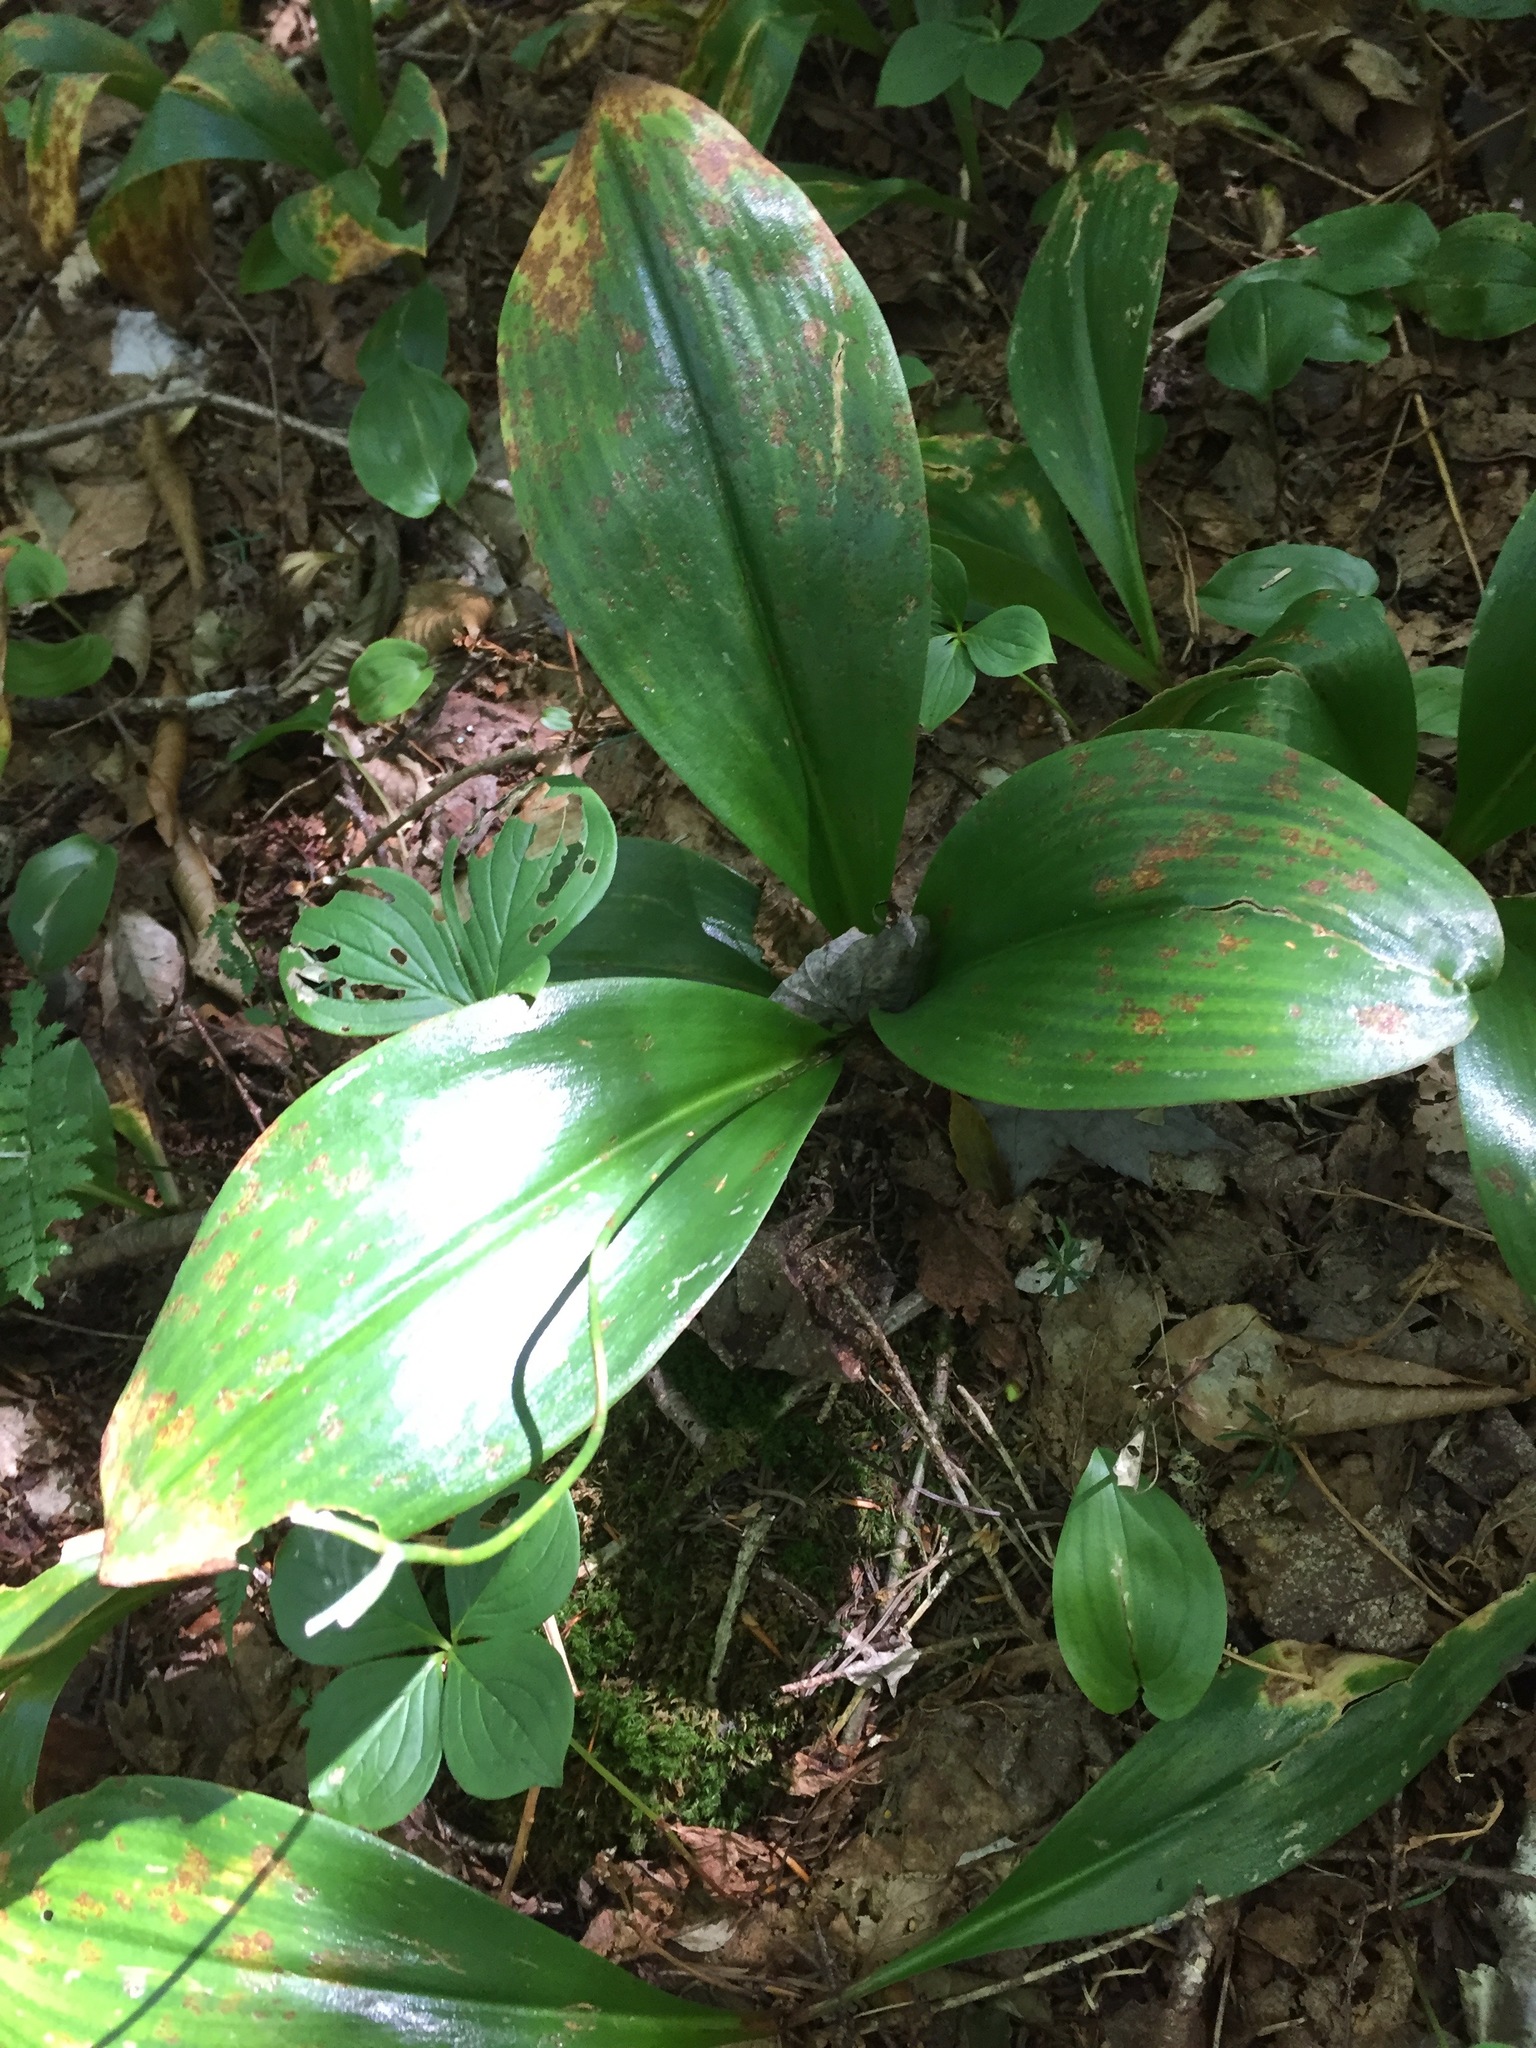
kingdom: Plantae
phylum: Tracheophyta
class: Liliopsida
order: Liliales
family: Liliaceae
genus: Clintonia
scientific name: Clintonia borealis
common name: Yellow clintonia
